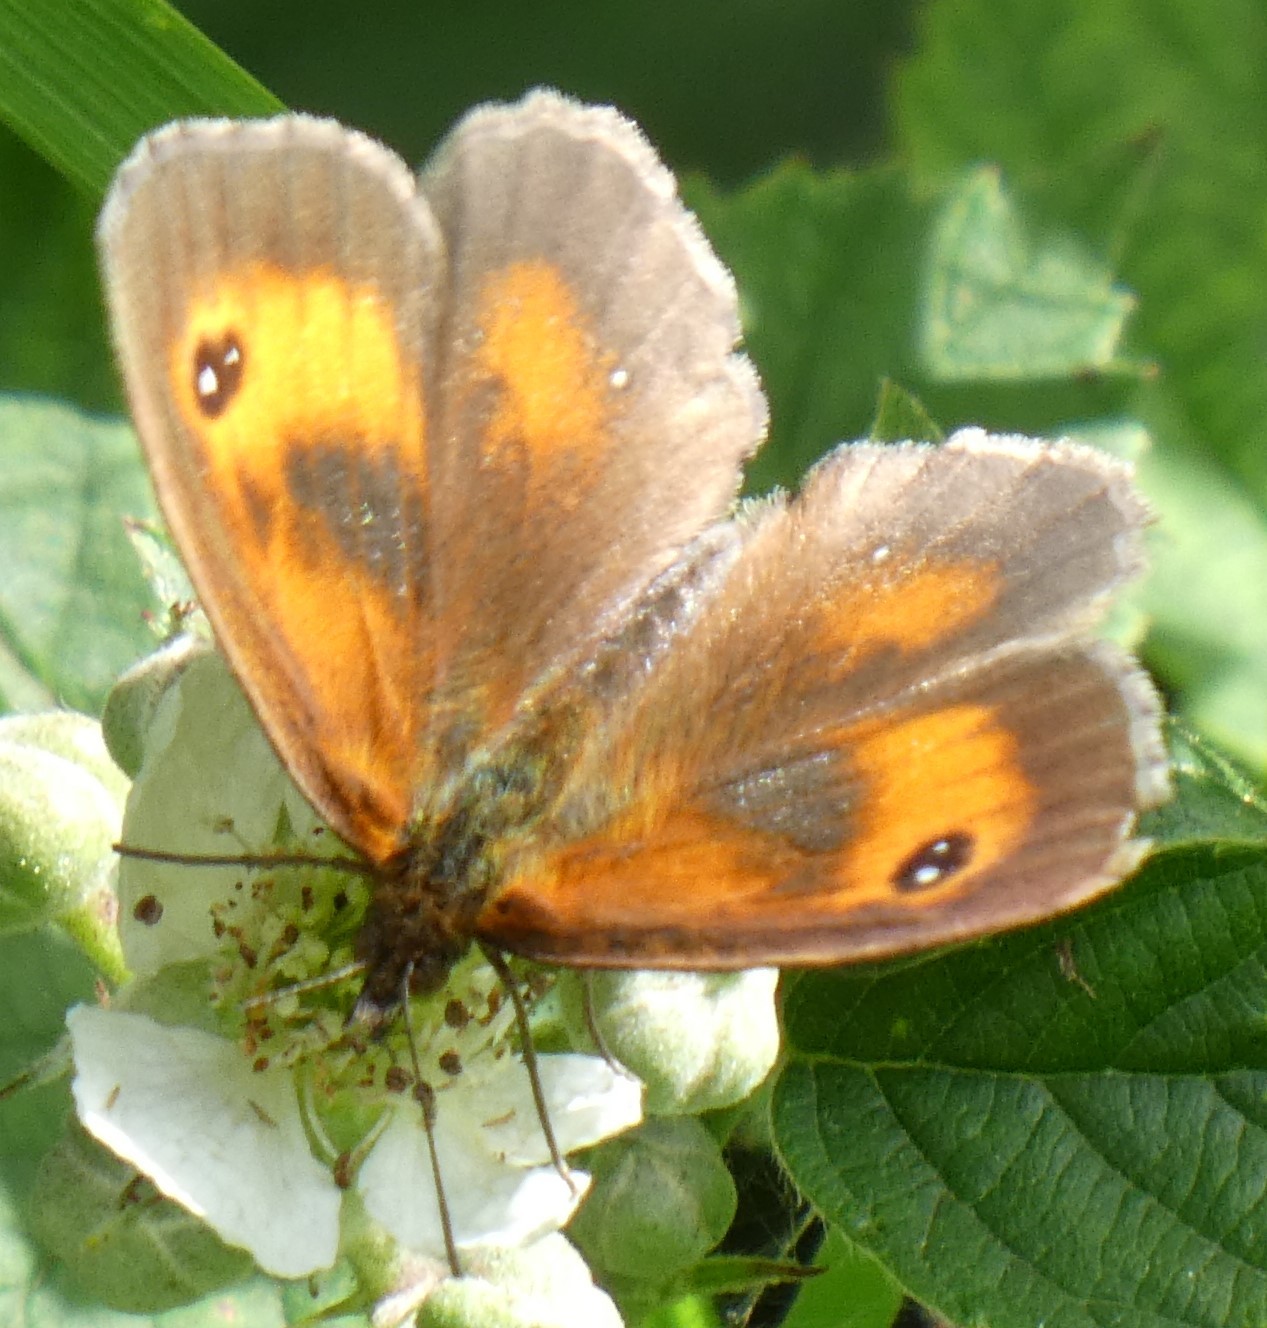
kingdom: Animalia
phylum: Arthropoda
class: Insecta
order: Lepidoptera
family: Nymphalidae
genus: Pyronia
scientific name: Pyronia tithonus
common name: Gatekeeper
